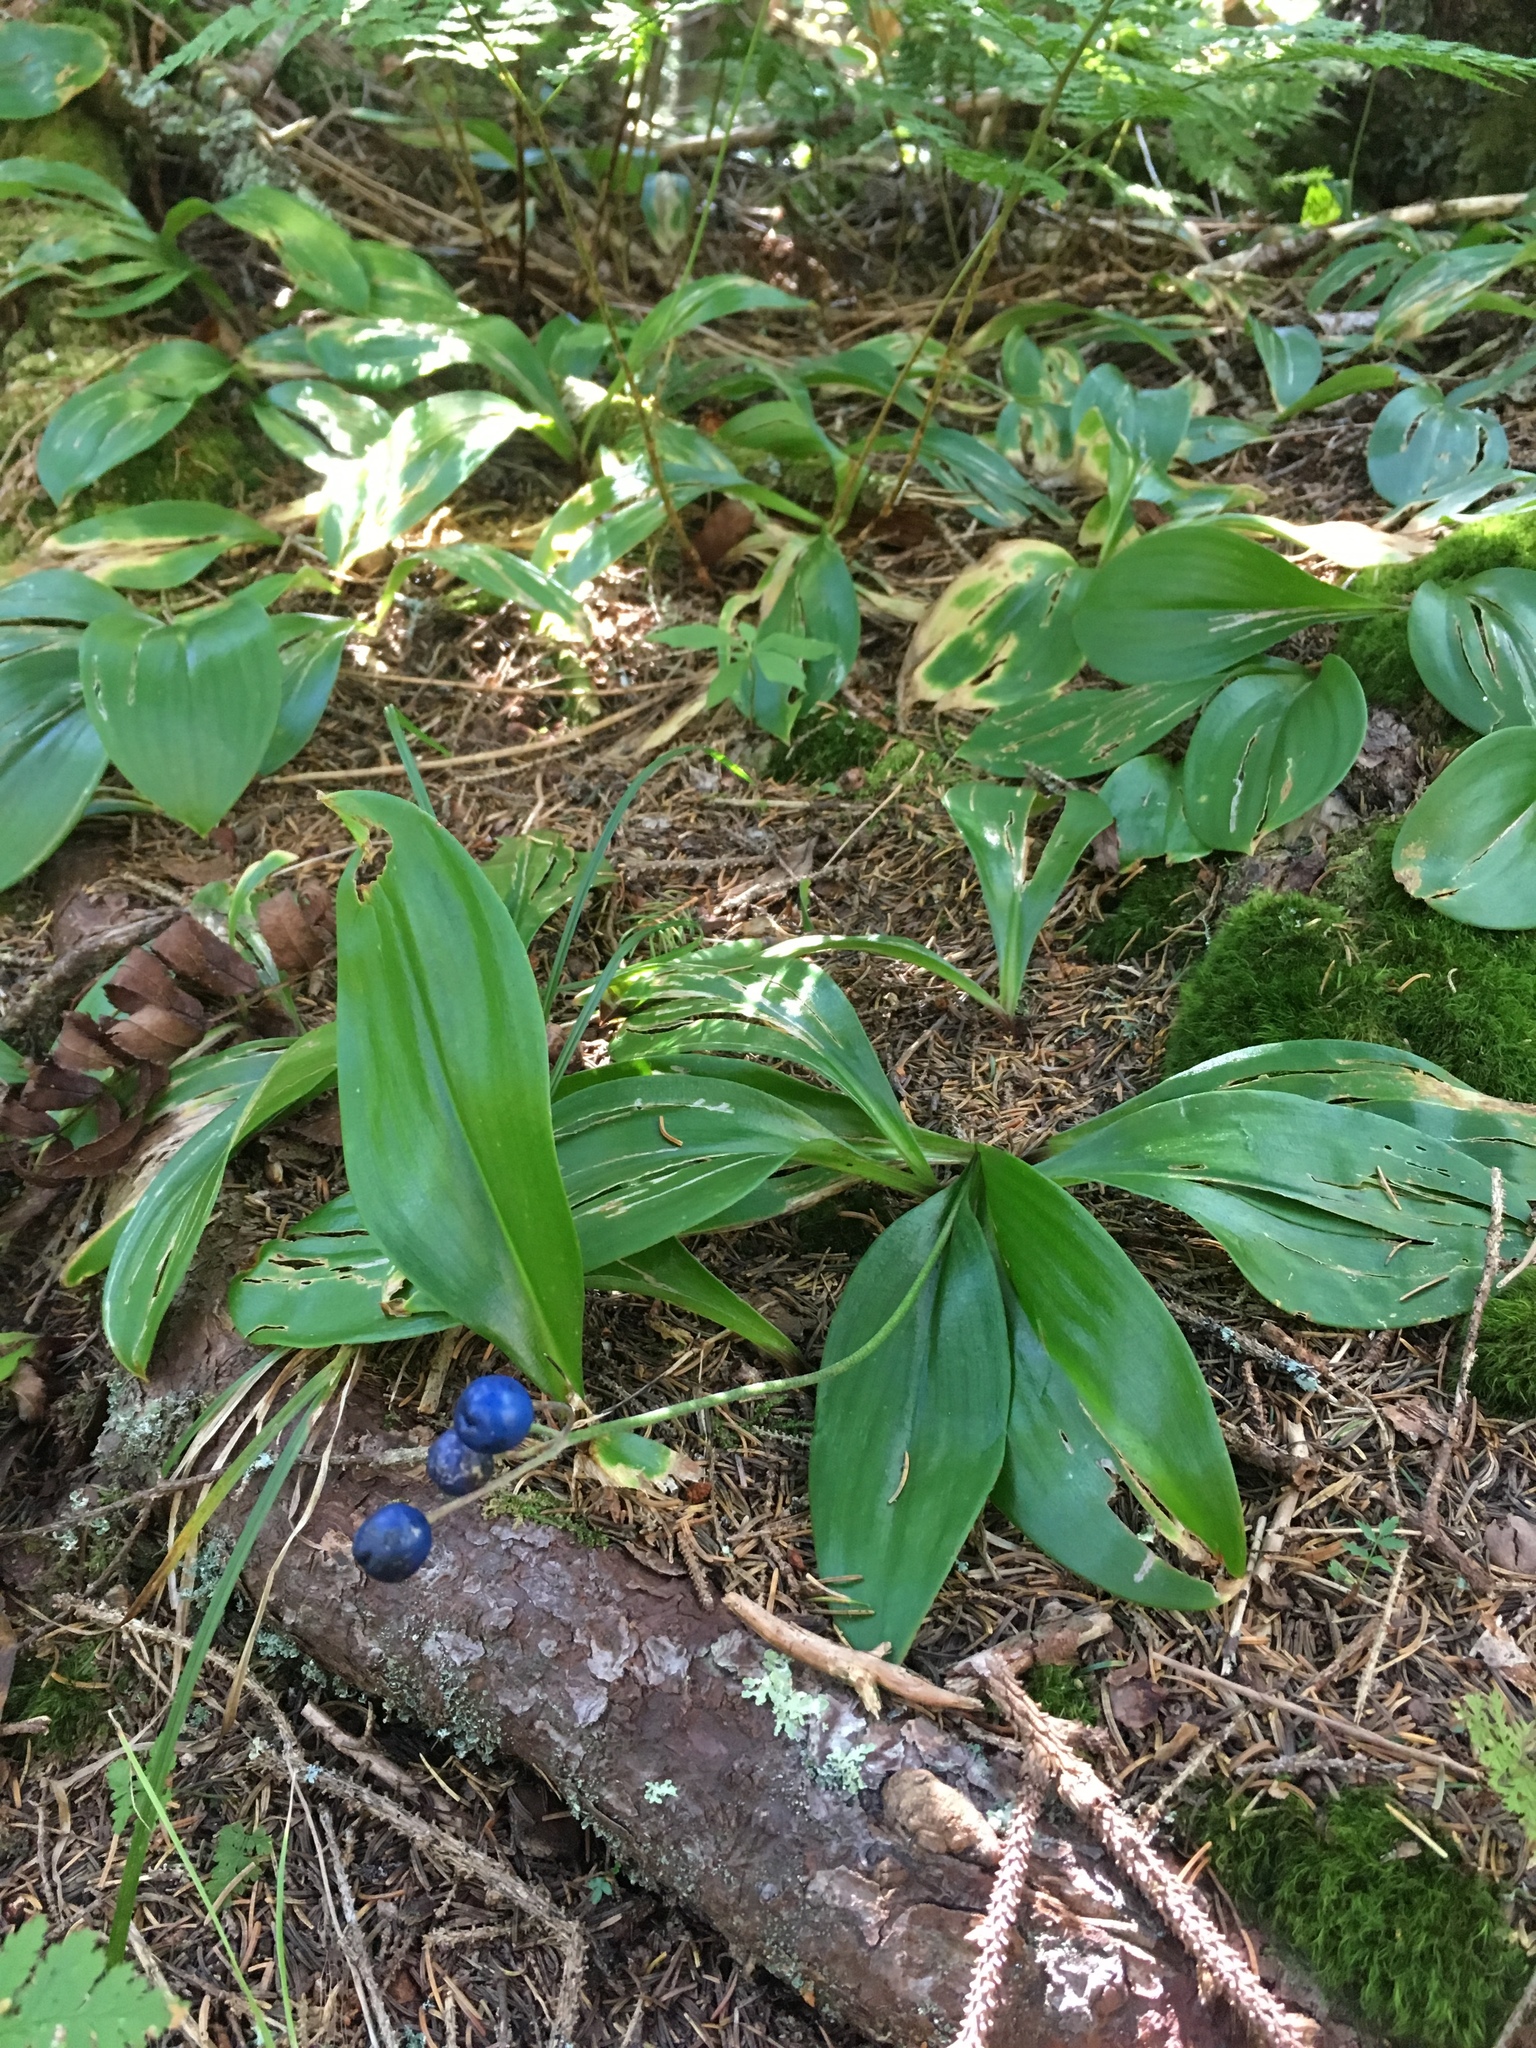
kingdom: Plantae
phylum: Tracheophyta
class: Liliopsida
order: Liliales
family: Liliaceae
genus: Clintonia
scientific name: Clintonia borealis
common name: Yellow clintonia
